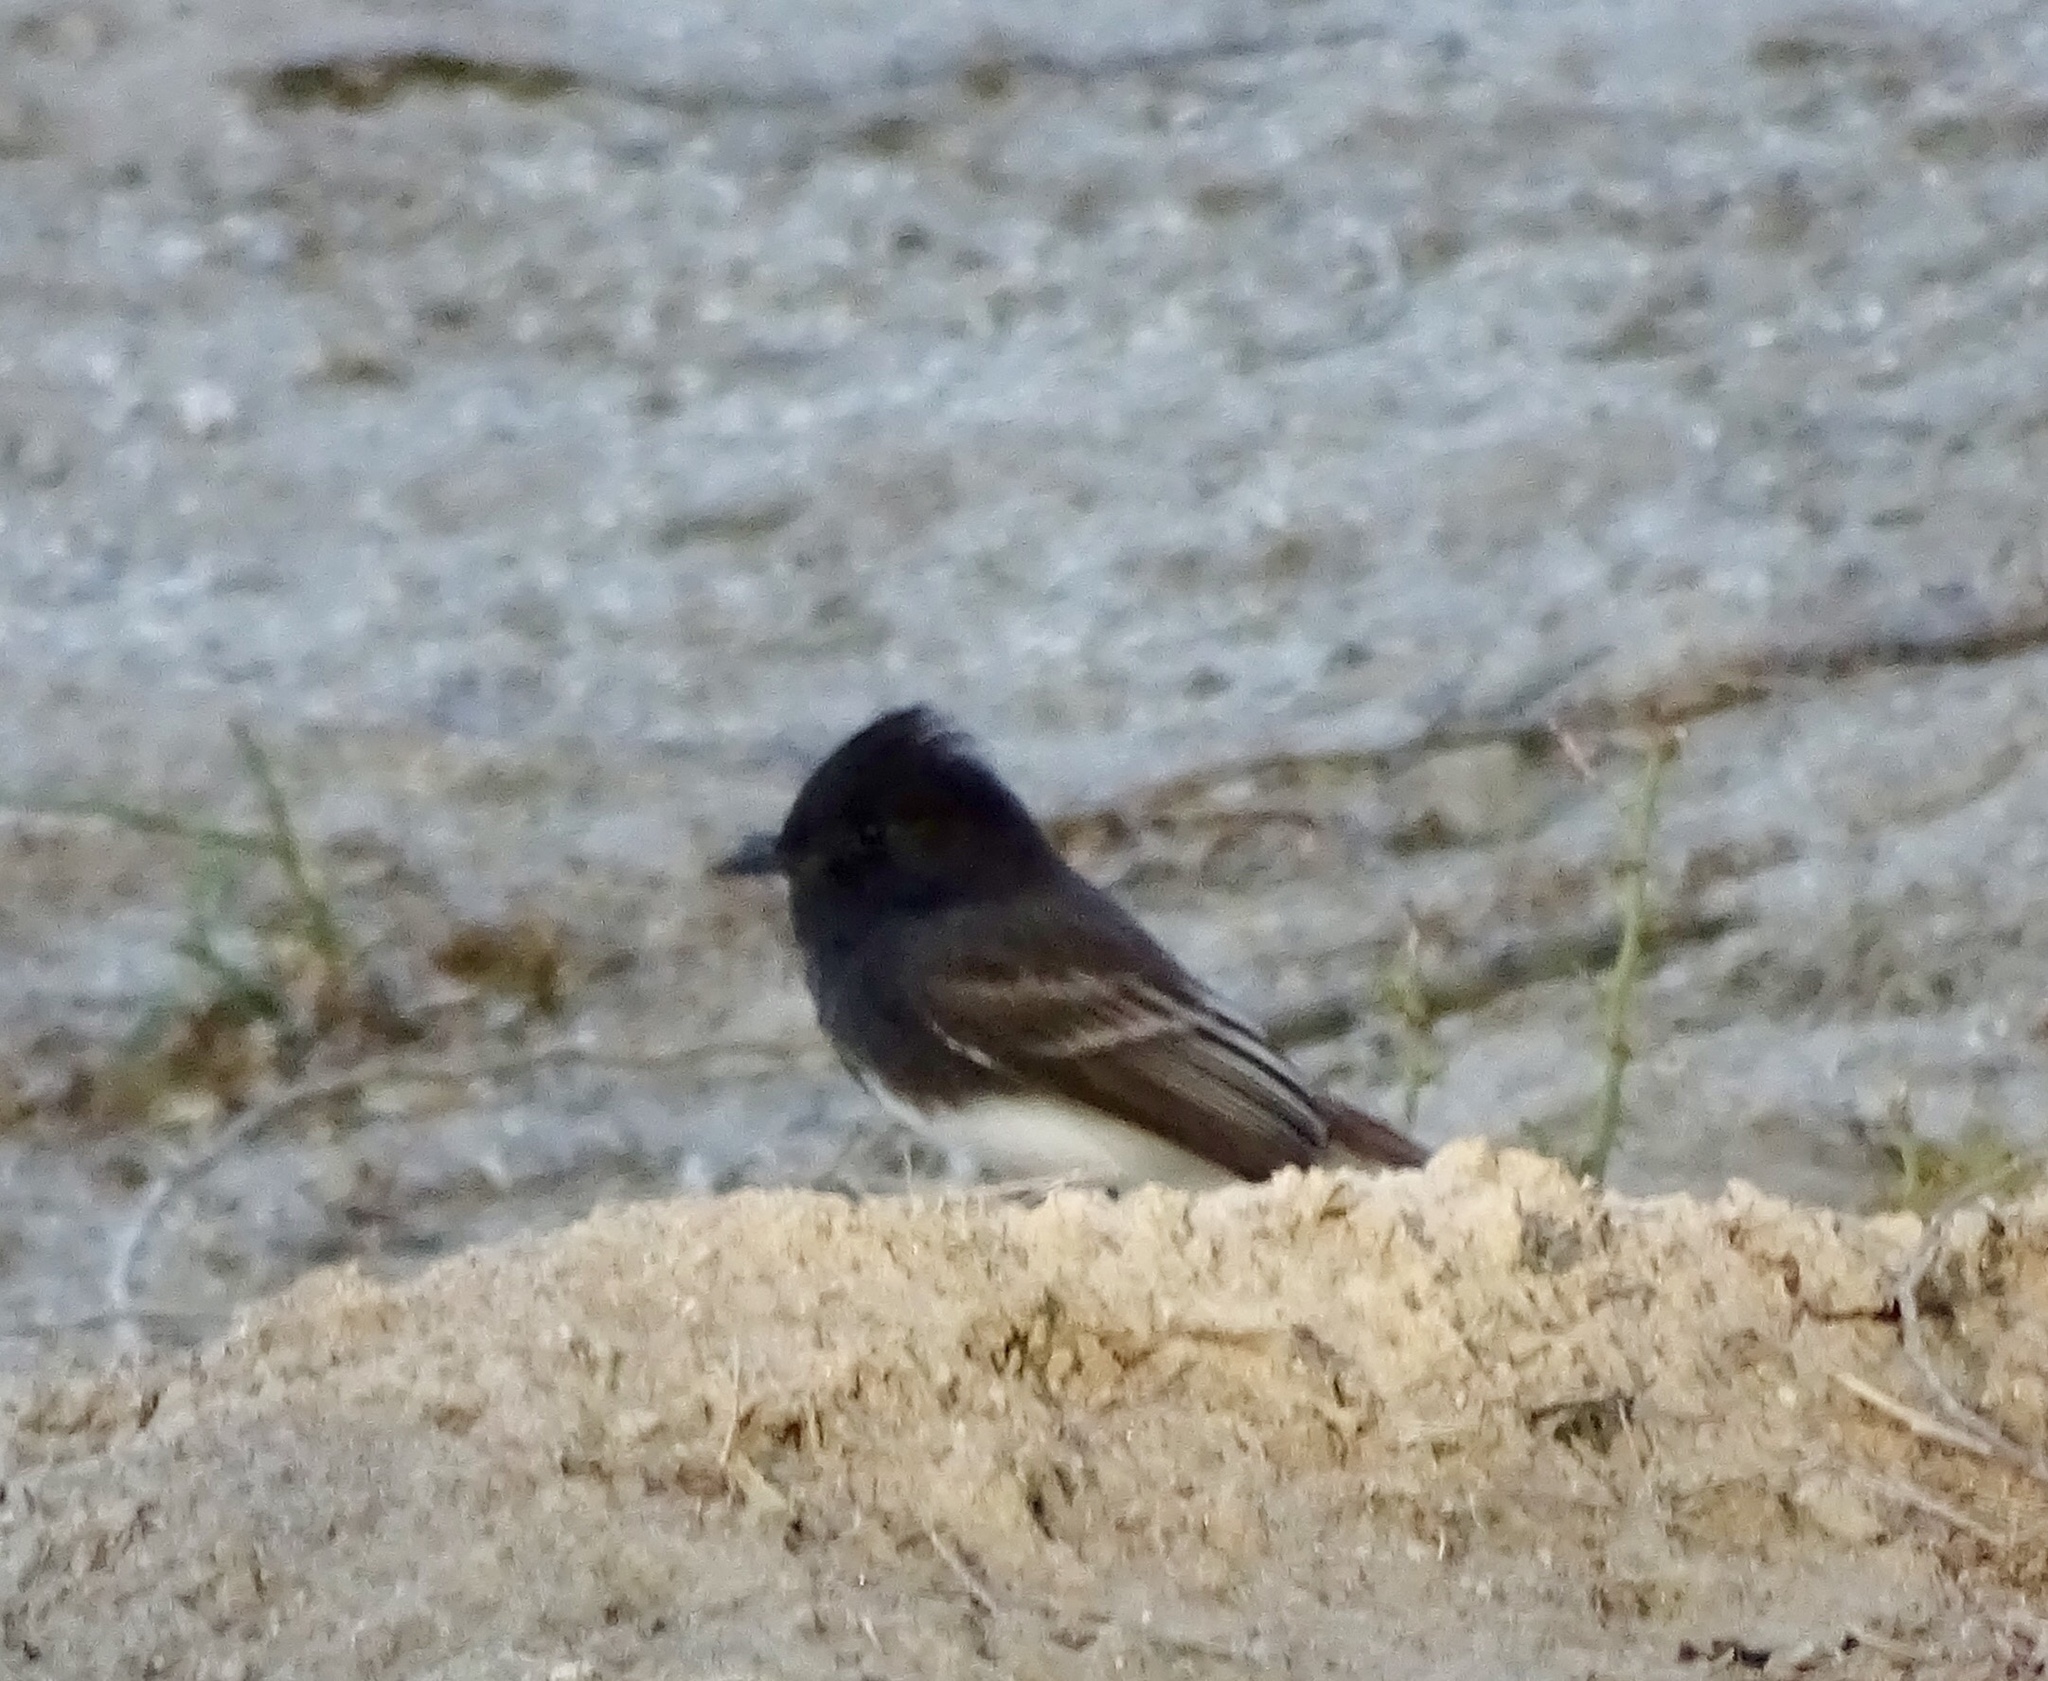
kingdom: Animalia
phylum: Chordata
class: Aves
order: Passeriformes
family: Tyrannidae
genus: Sayornis
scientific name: Sayornis nigricans
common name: Black phoebe
